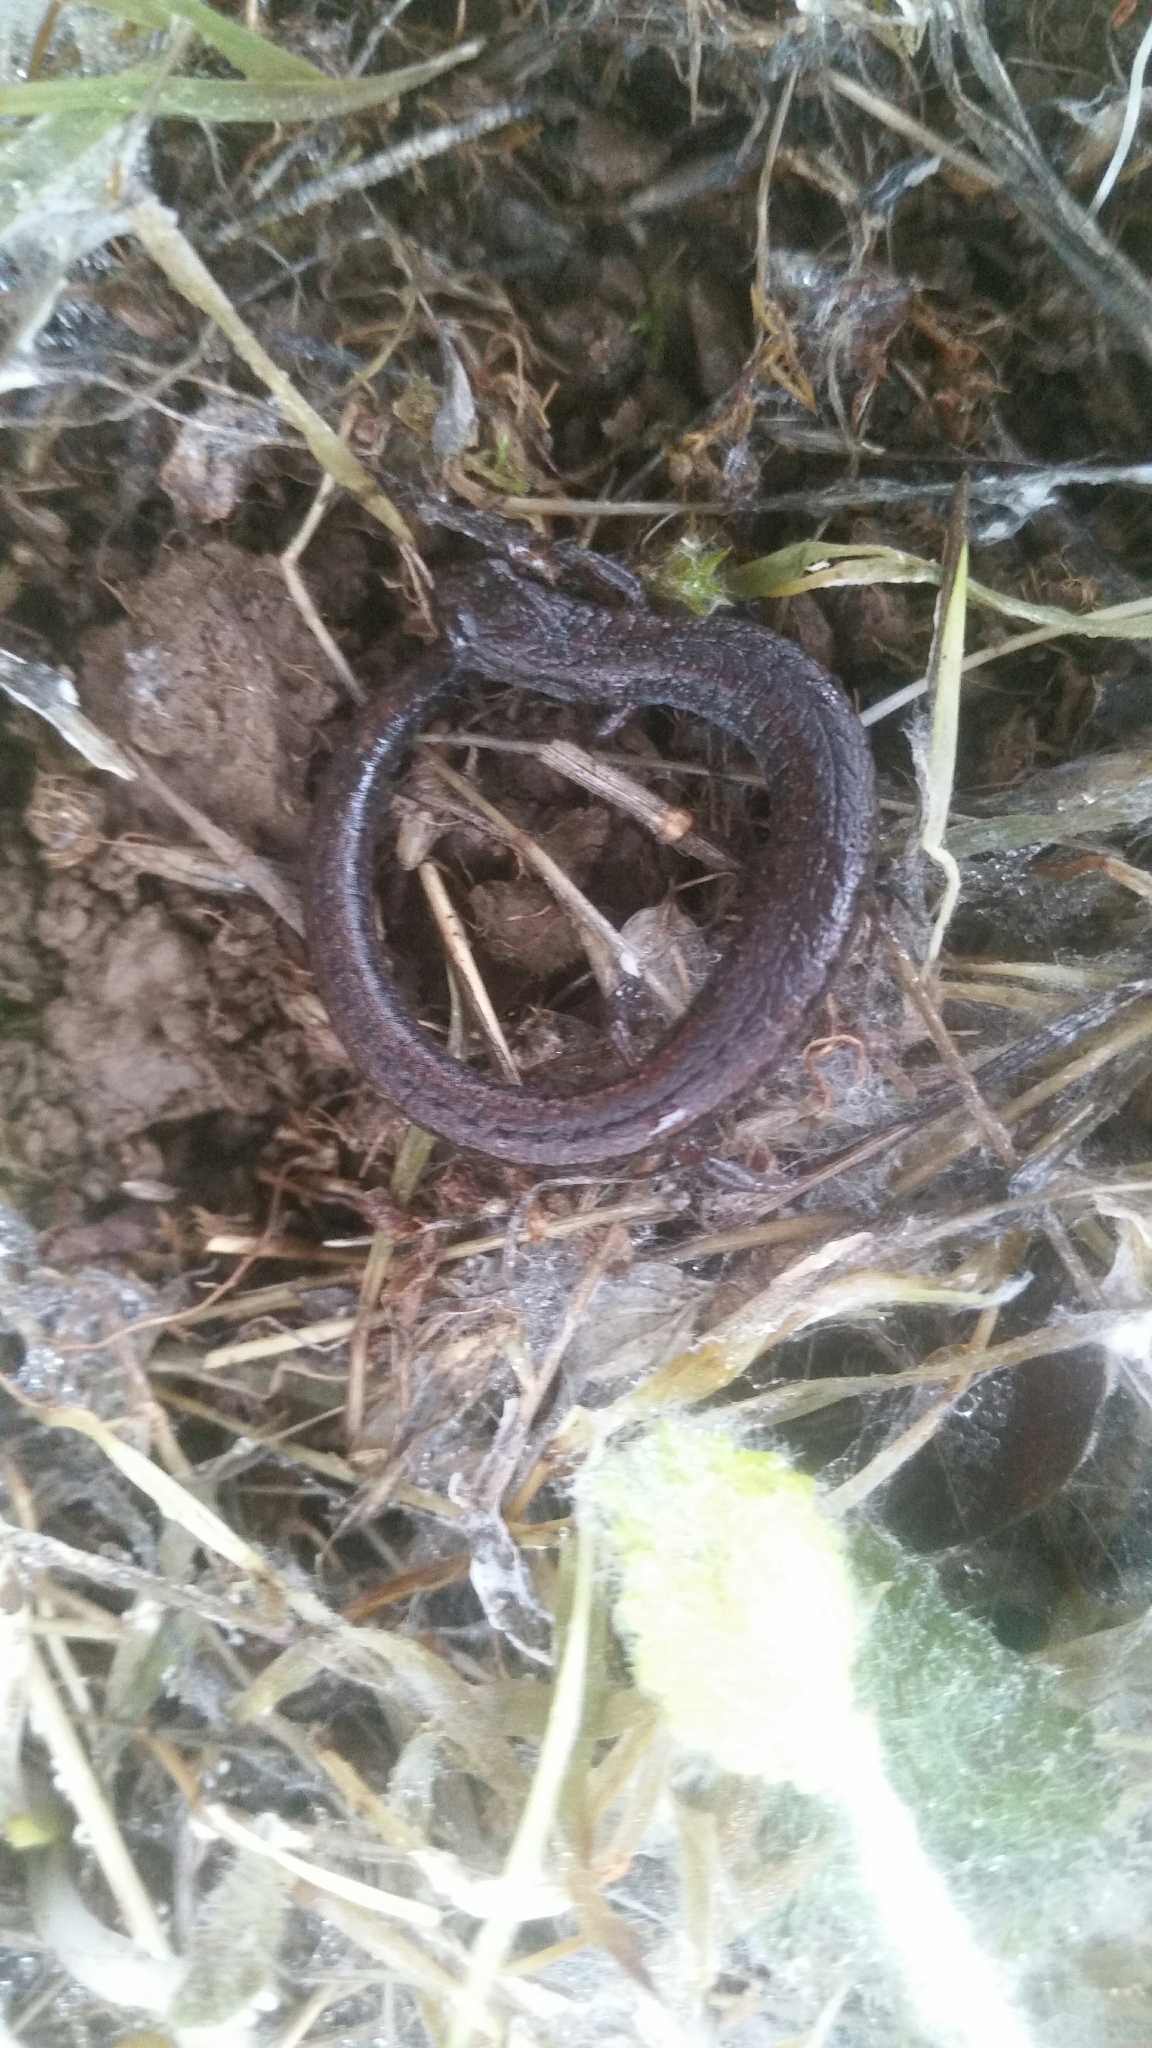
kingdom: Animalia
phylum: Chordata
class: Amphibia
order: Caudata
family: Plethodontidae
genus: Batrachoseps
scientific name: Batrachoseps attenuatus
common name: California slender salamander
